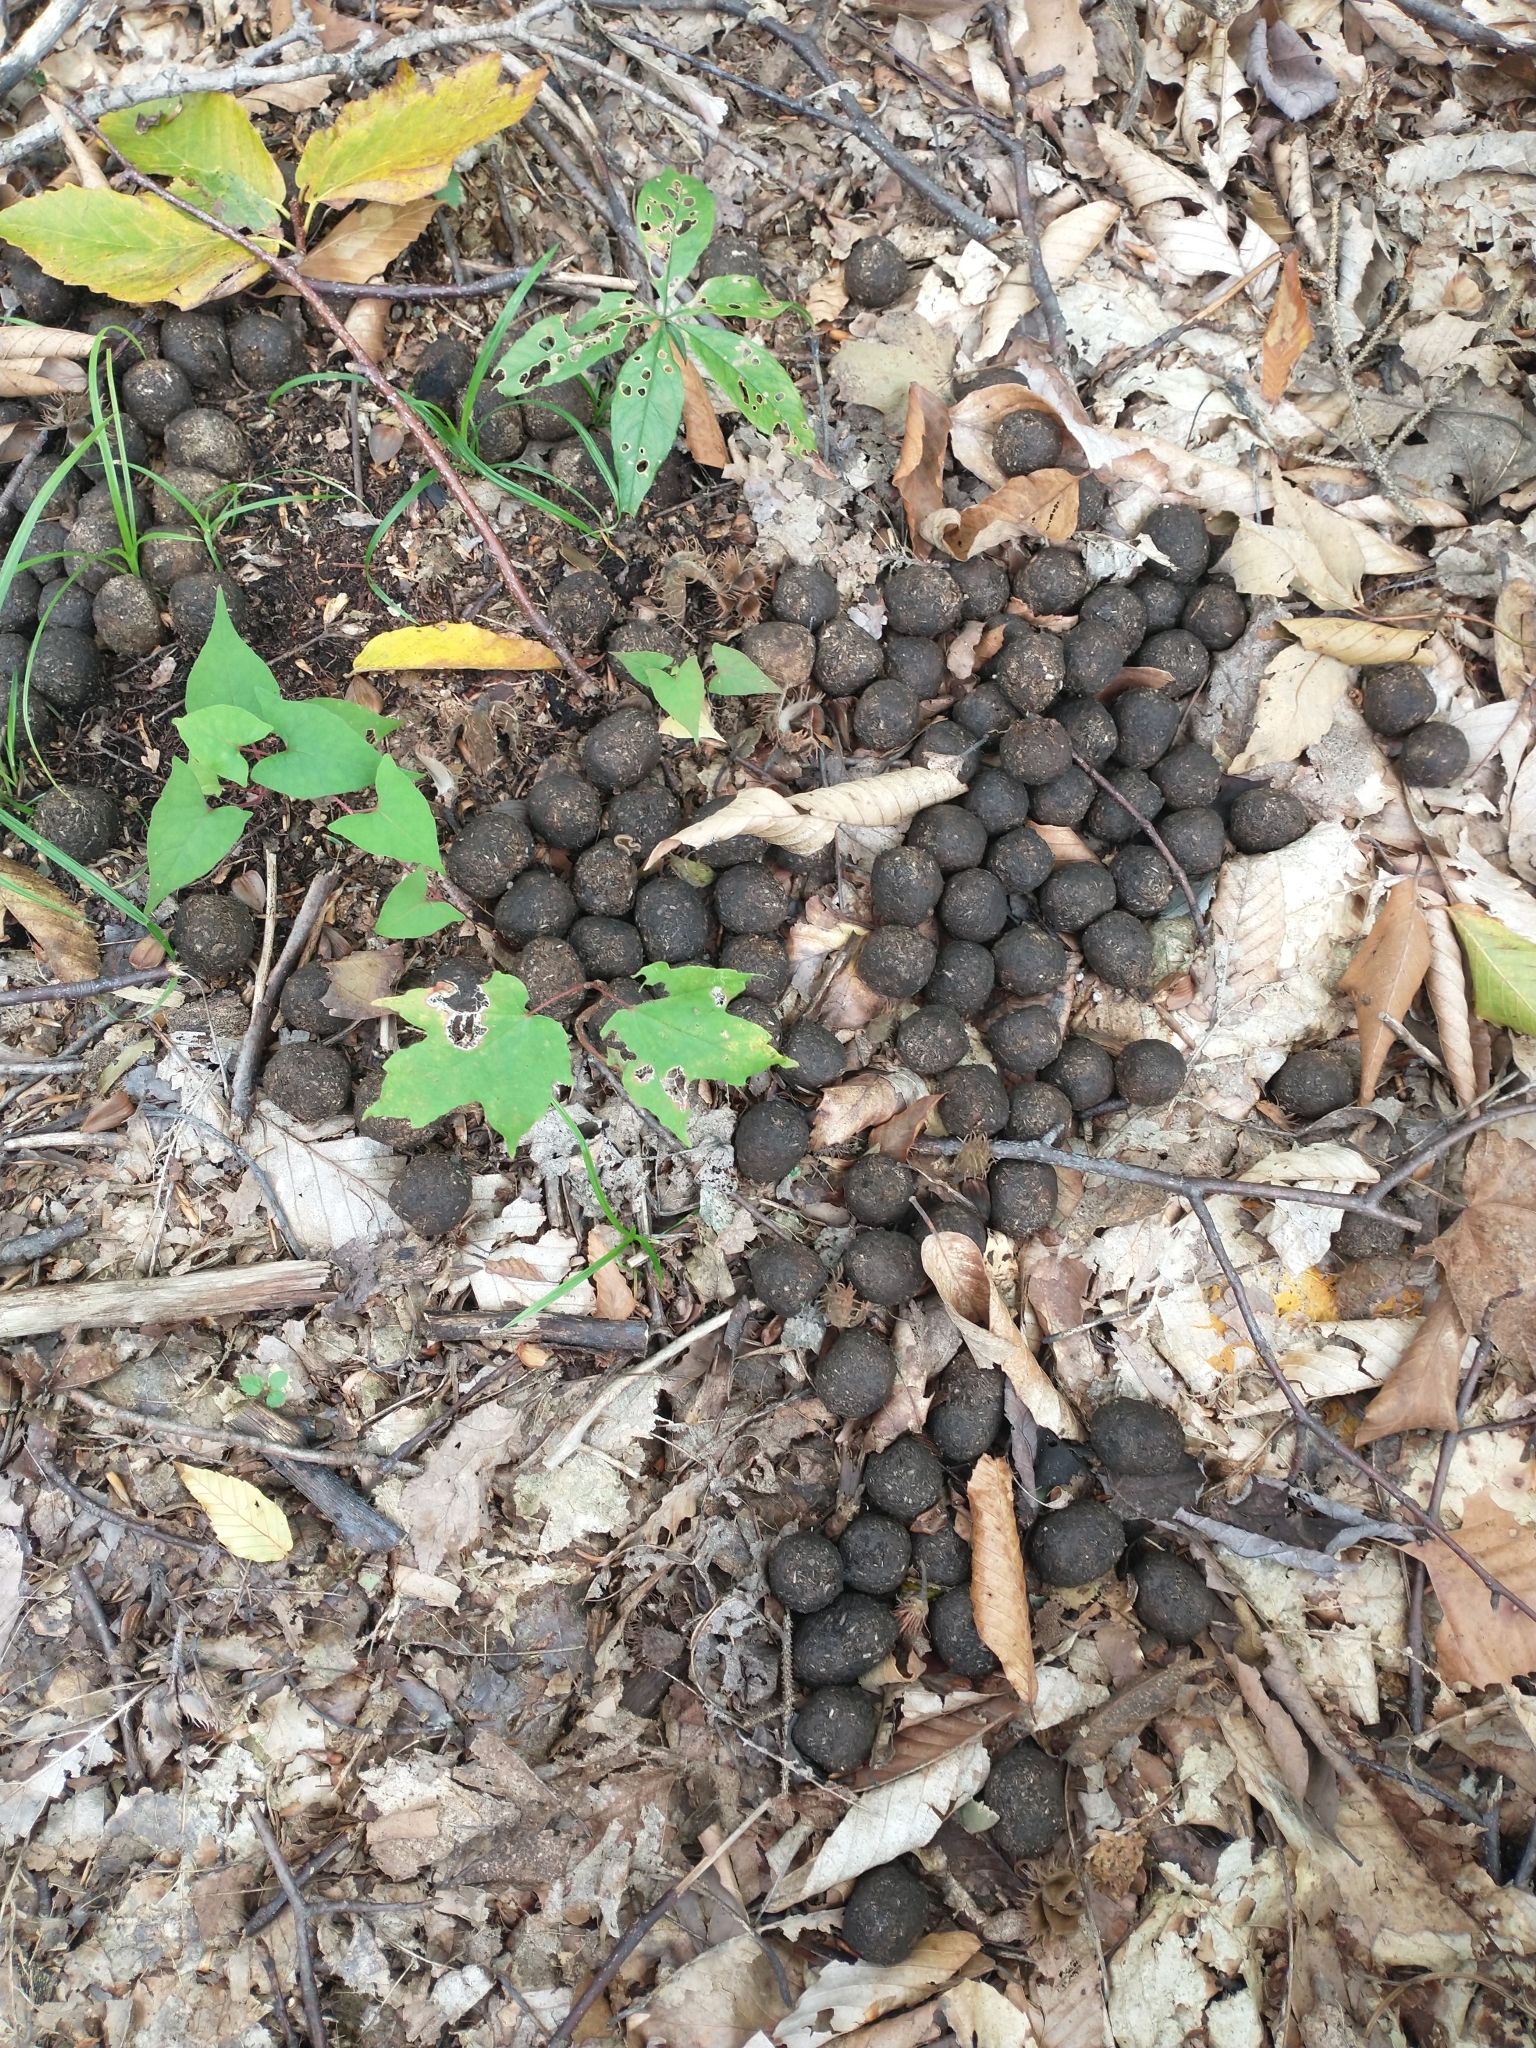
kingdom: Animalia
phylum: Chordata
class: Mammalia
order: Artiodactyla
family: Cervidae
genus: Alces
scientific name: Alces alces
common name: Moose
